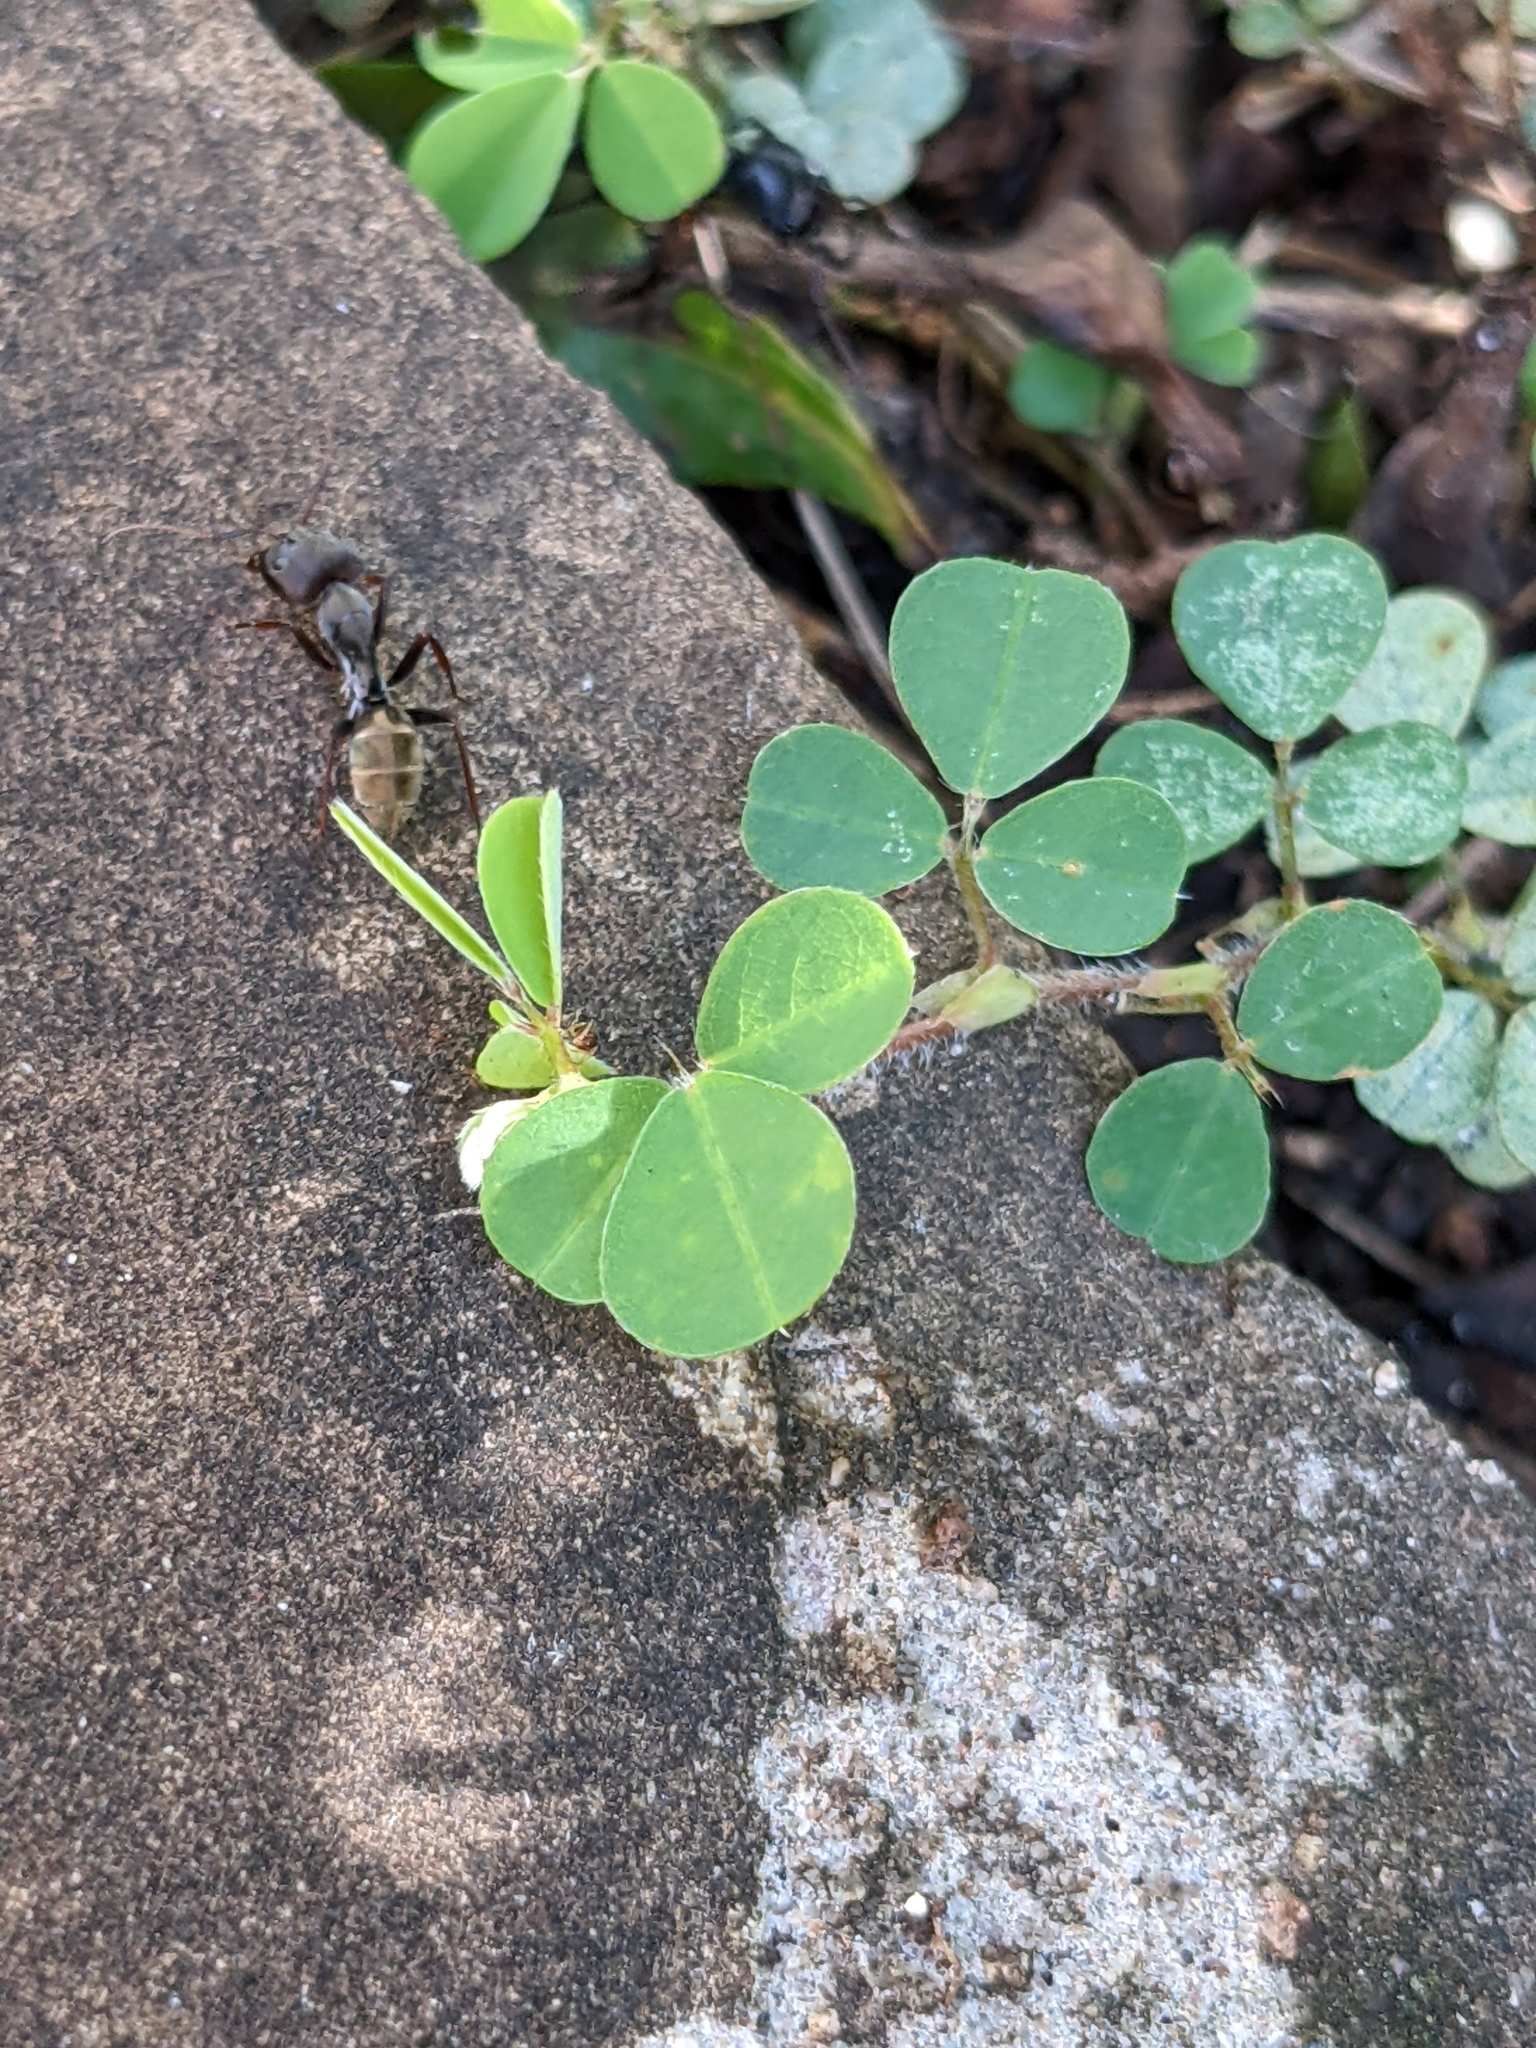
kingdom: Animalia
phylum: Arthropoda
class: Insecta
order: Hymenoptera
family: Formicidae
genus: Camponotus
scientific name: Camponotus cinctellus
